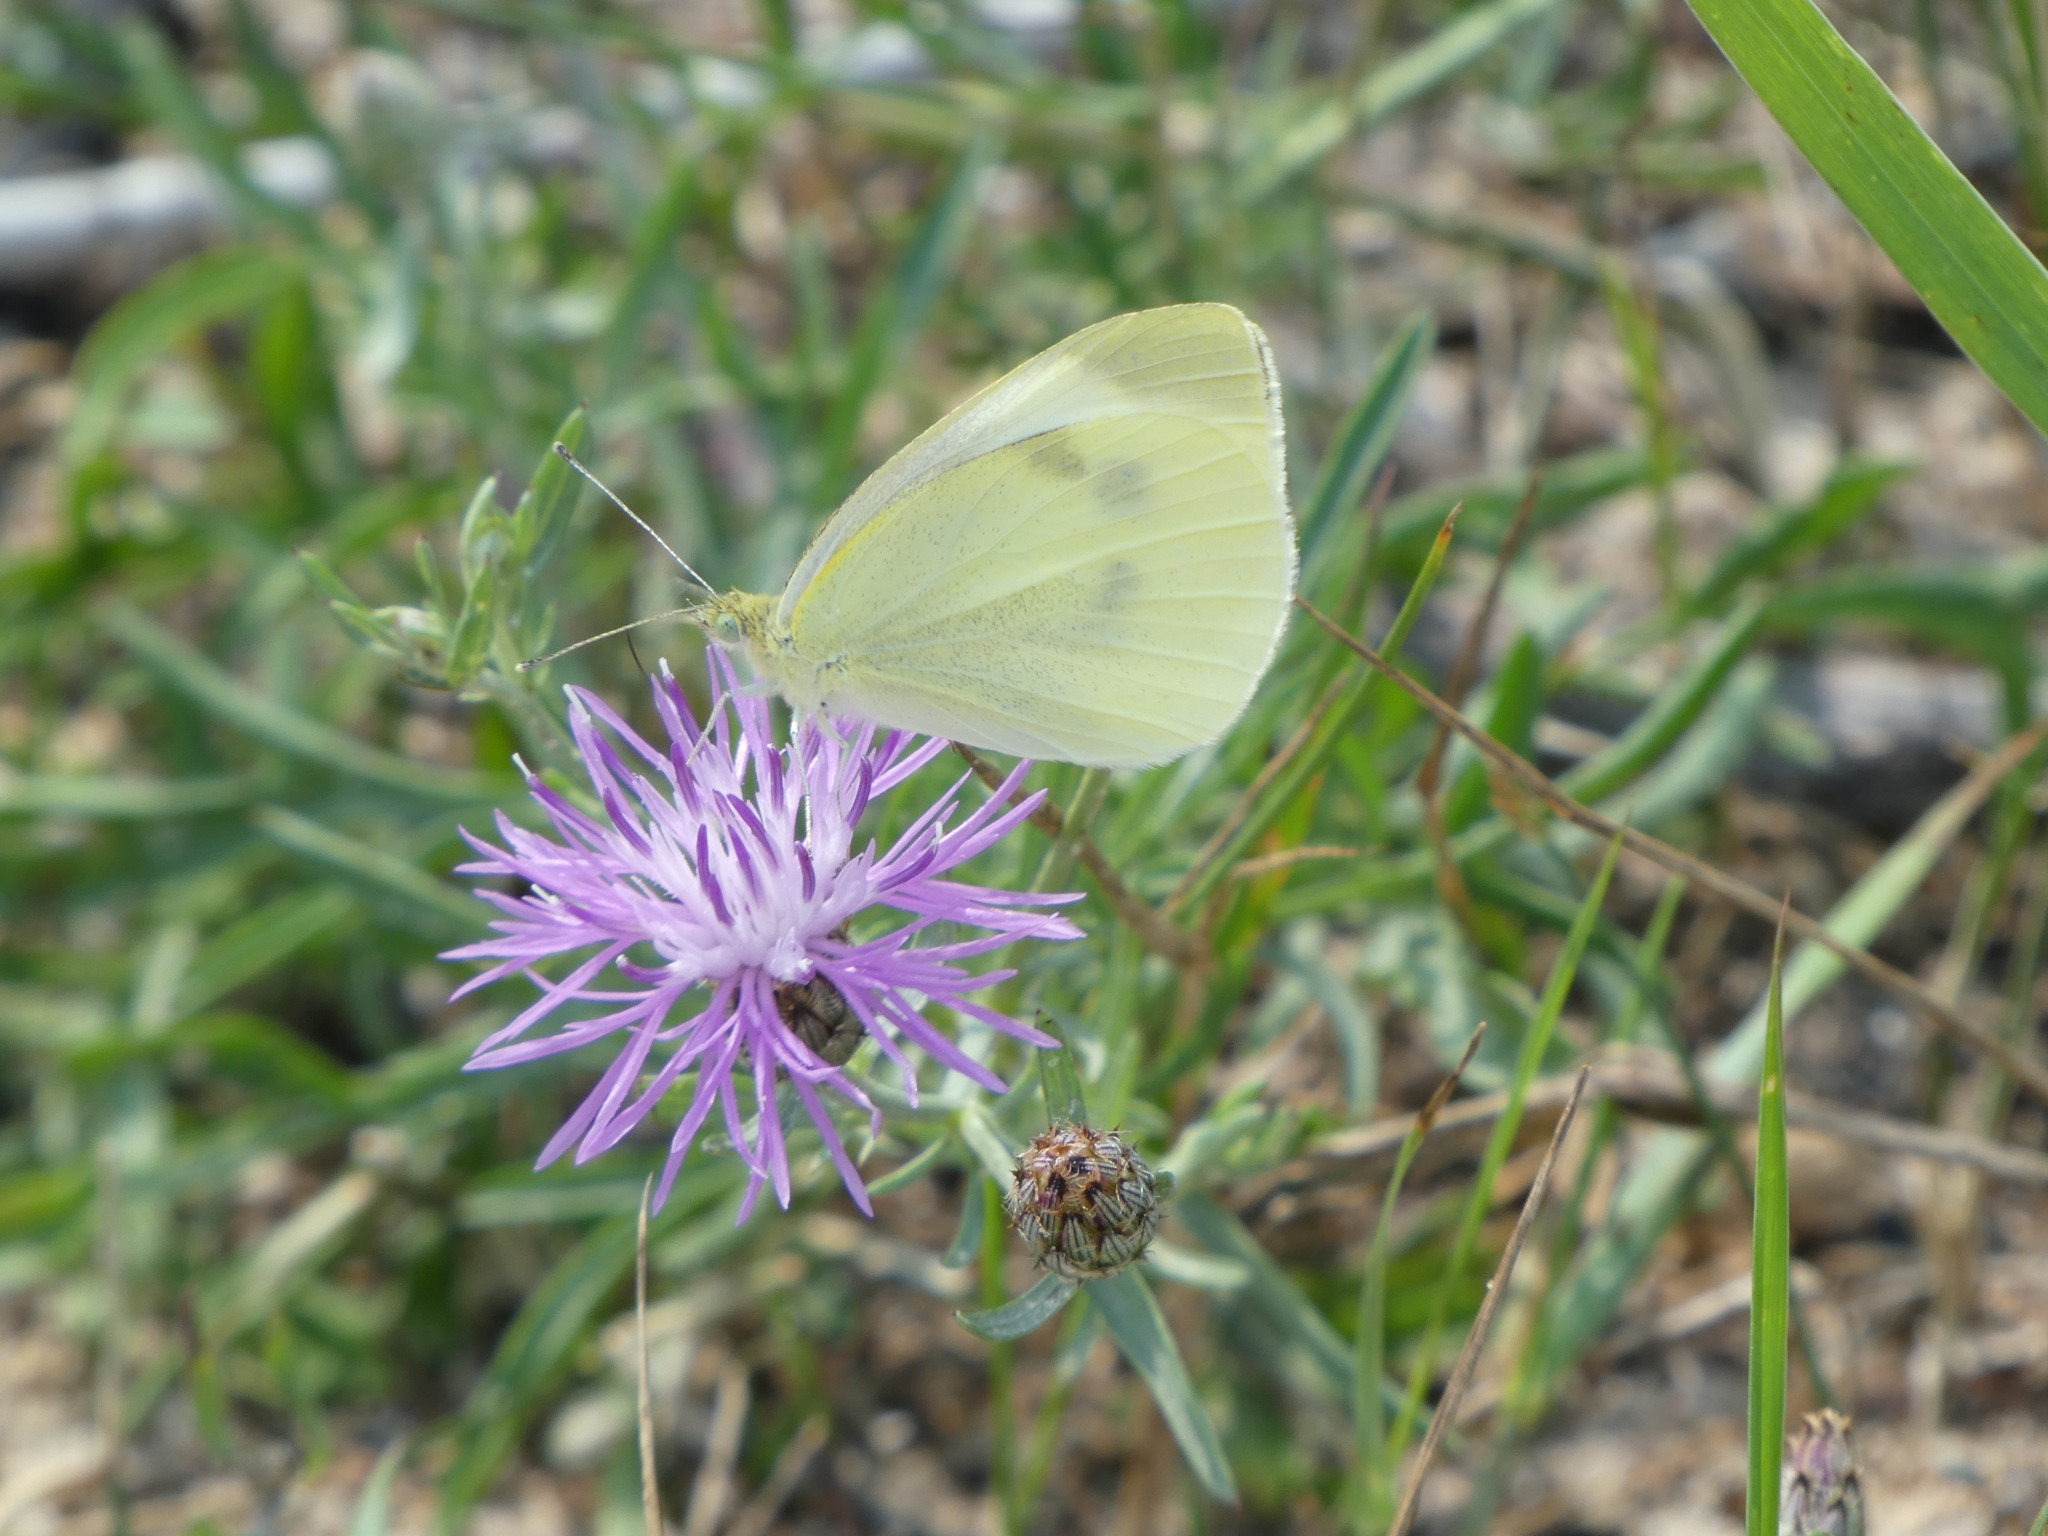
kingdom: Animalia
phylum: Arthropoda
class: Insecta
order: Lepidoptera
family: Pieridae
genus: Pieris
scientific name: Pieris rapae
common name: Small white
